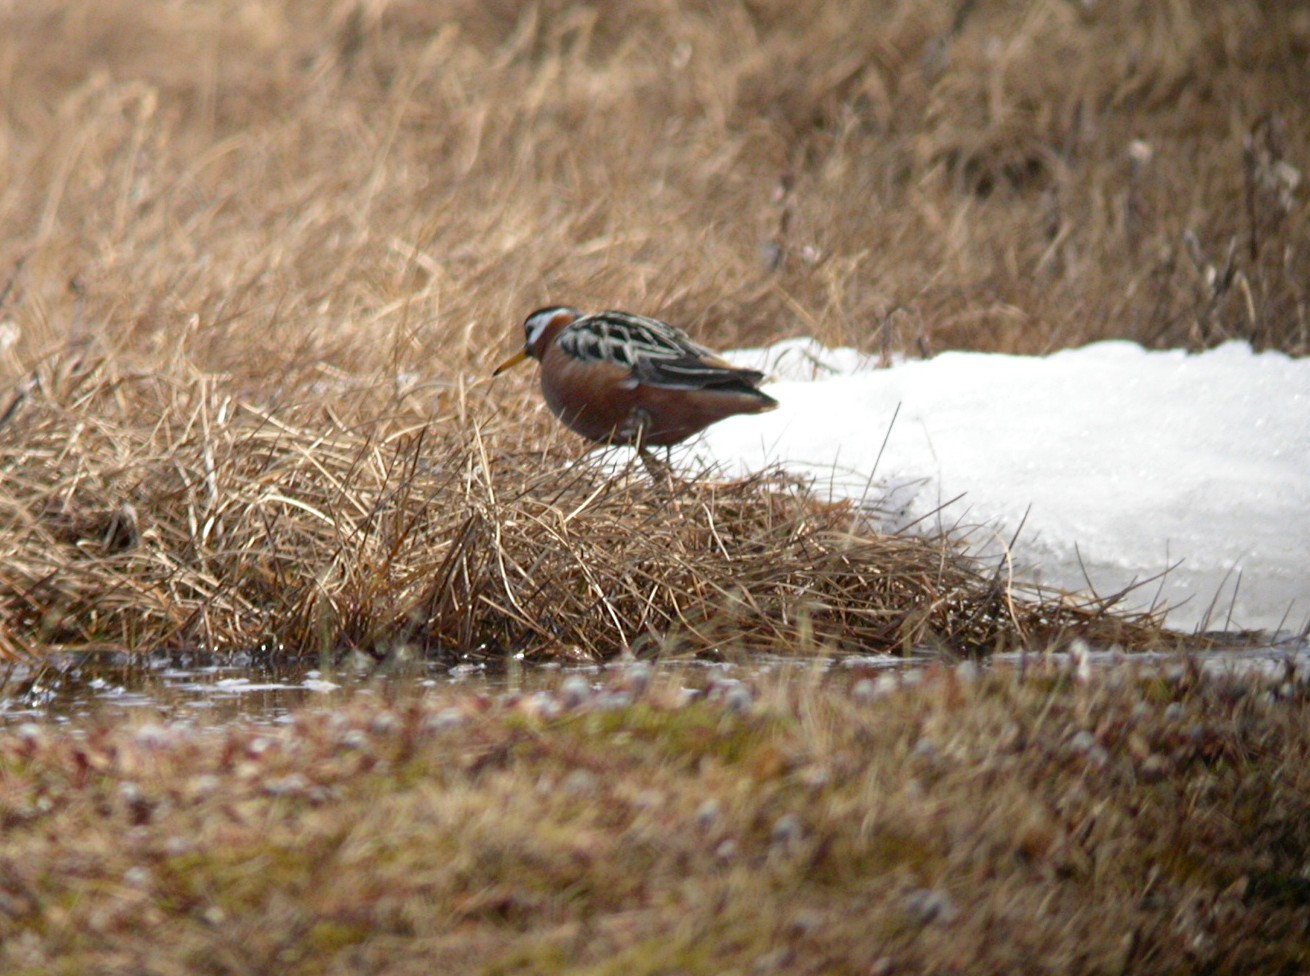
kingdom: Animalia
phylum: Chordata
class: Aves
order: Charadriiformes
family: Scolopacidae
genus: Phalaropus
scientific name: Phalaropus fulicarius
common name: Red phalarope
